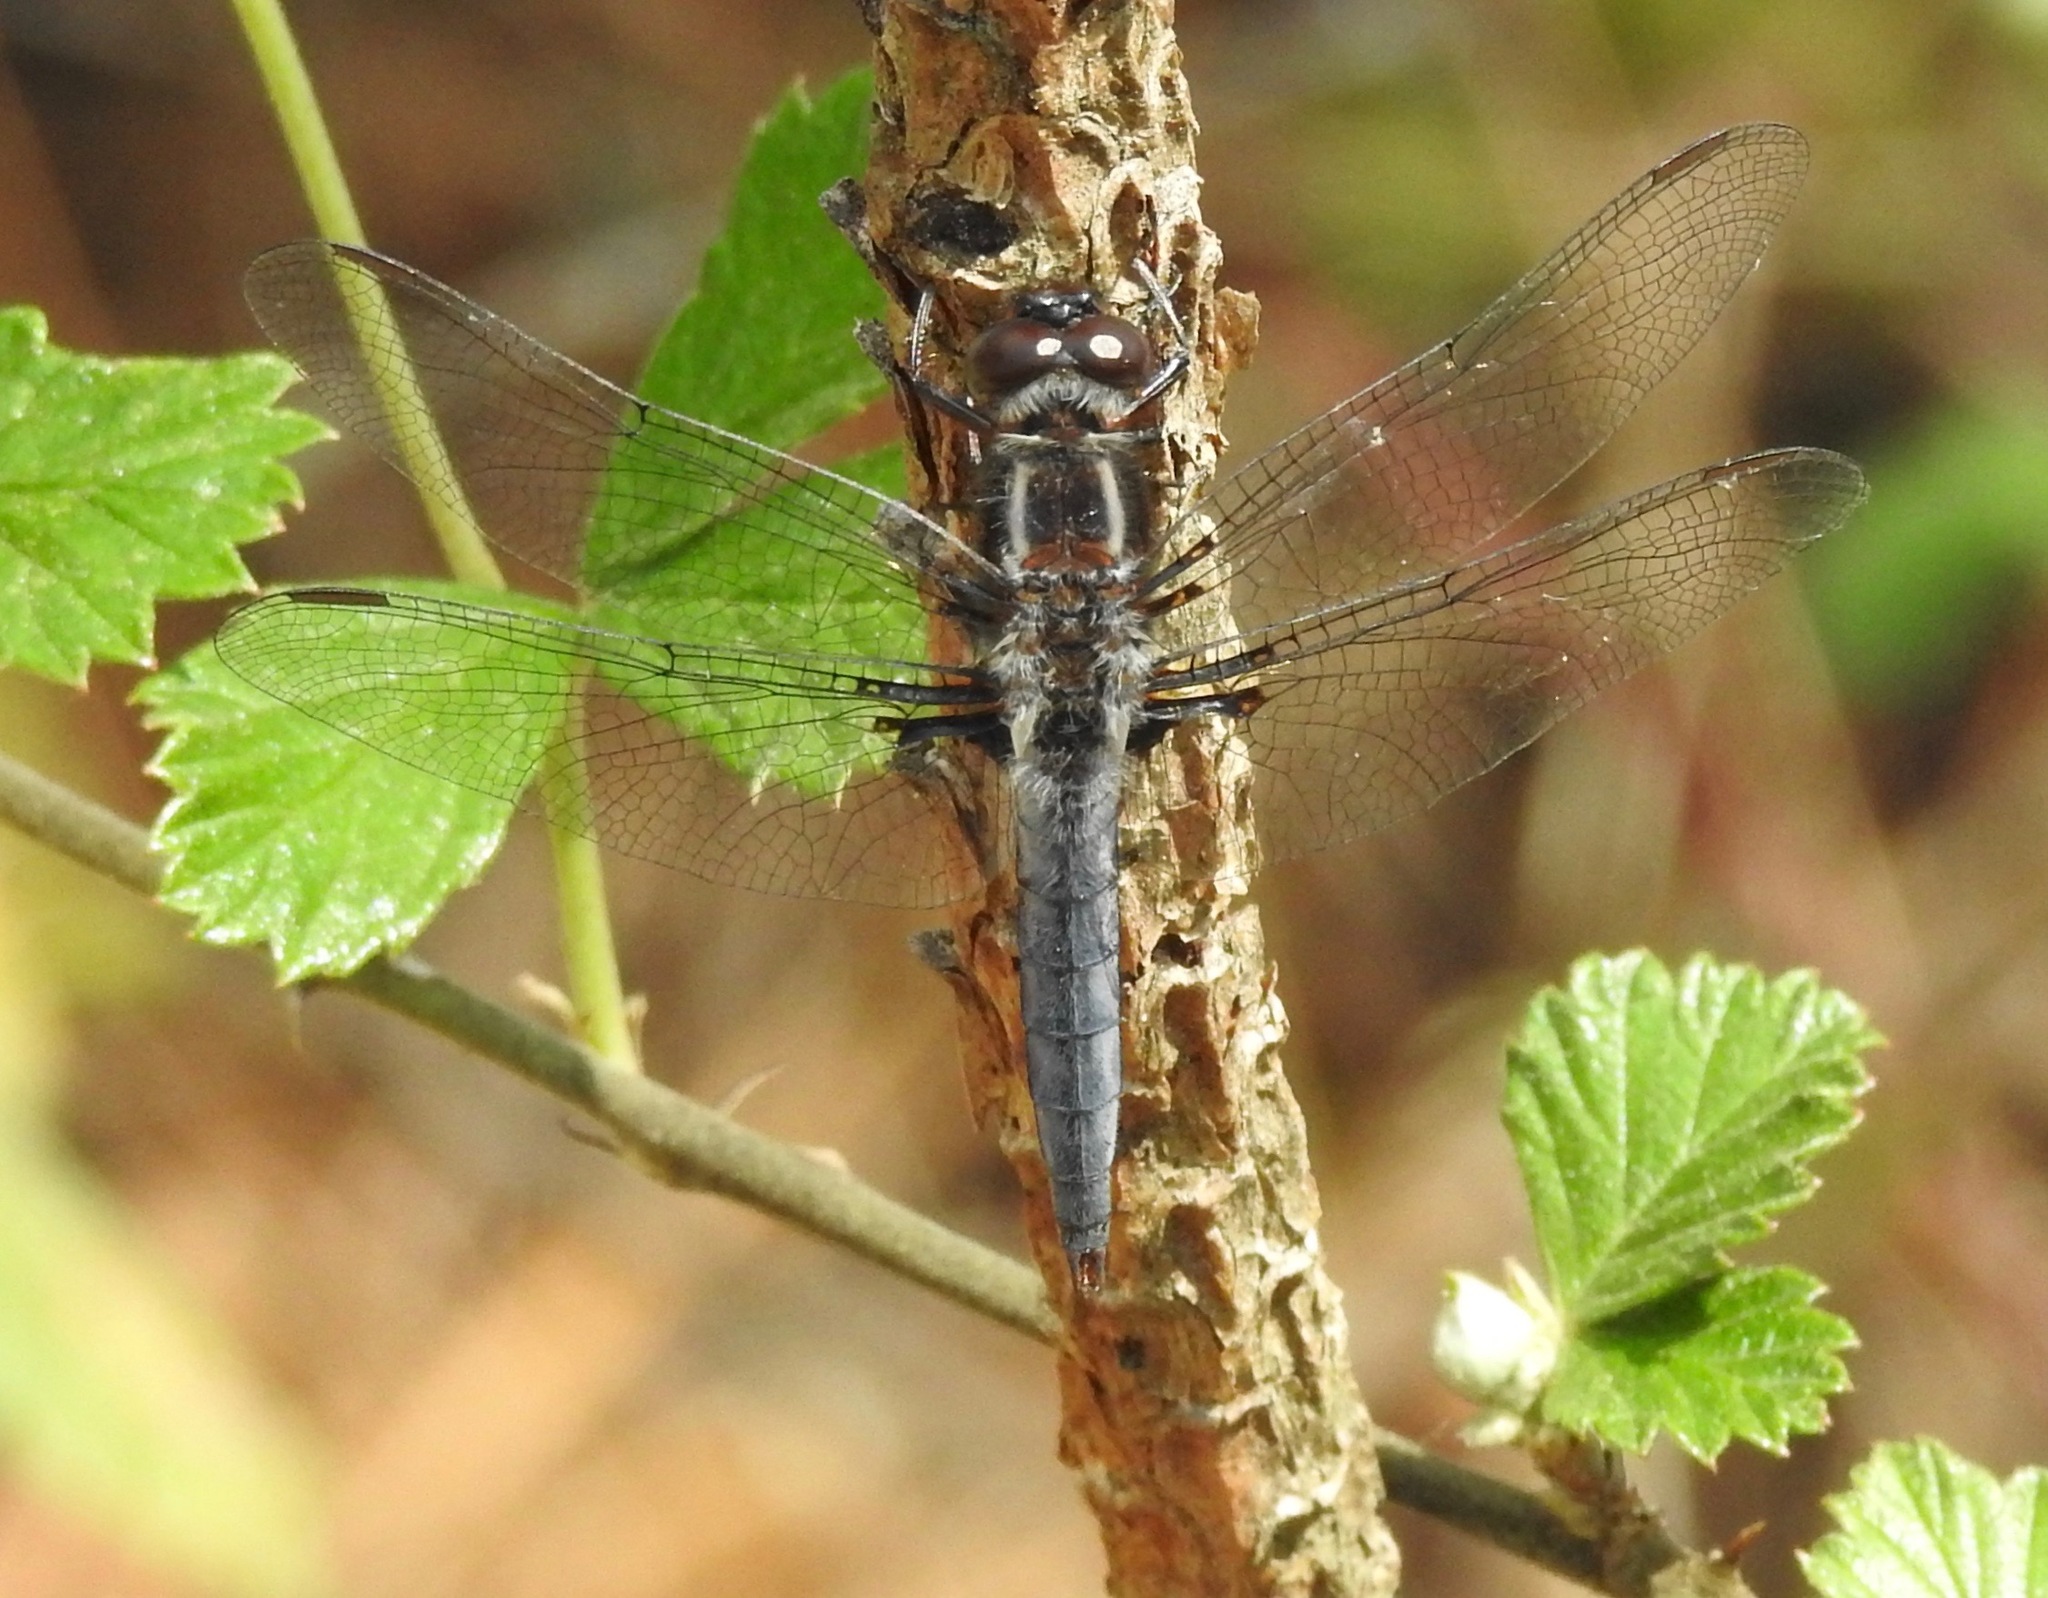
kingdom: Animalia
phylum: Arthropoda
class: Insecta
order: Odonata
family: Libellulidae
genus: Ladona
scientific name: Ladona deplanata
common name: Blue corporal
